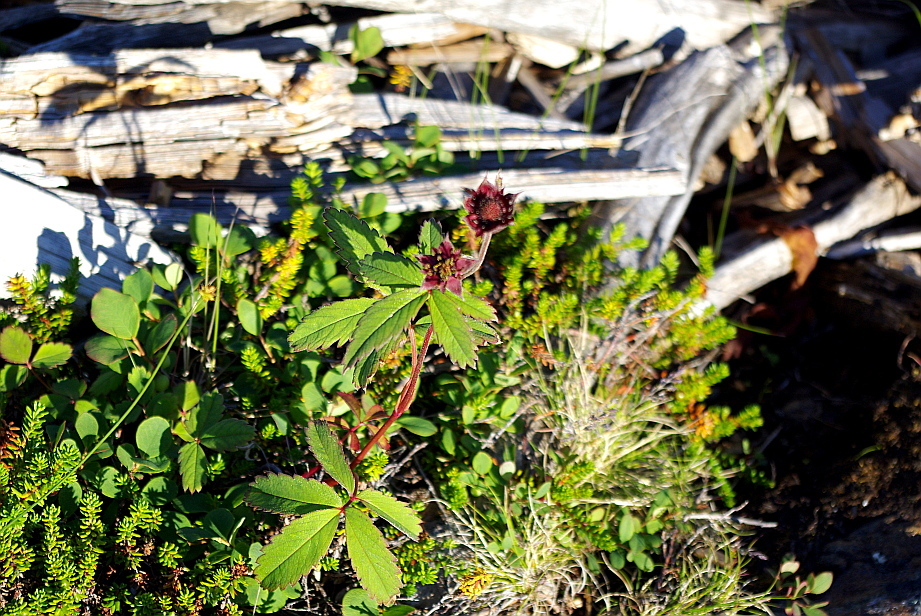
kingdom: Plantae
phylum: Tracheophyta
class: Magnoliopsida
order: Rosales
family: Rosaceae
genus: Comarum
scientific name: Comarum palustre
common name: Marsh cinquefoil
